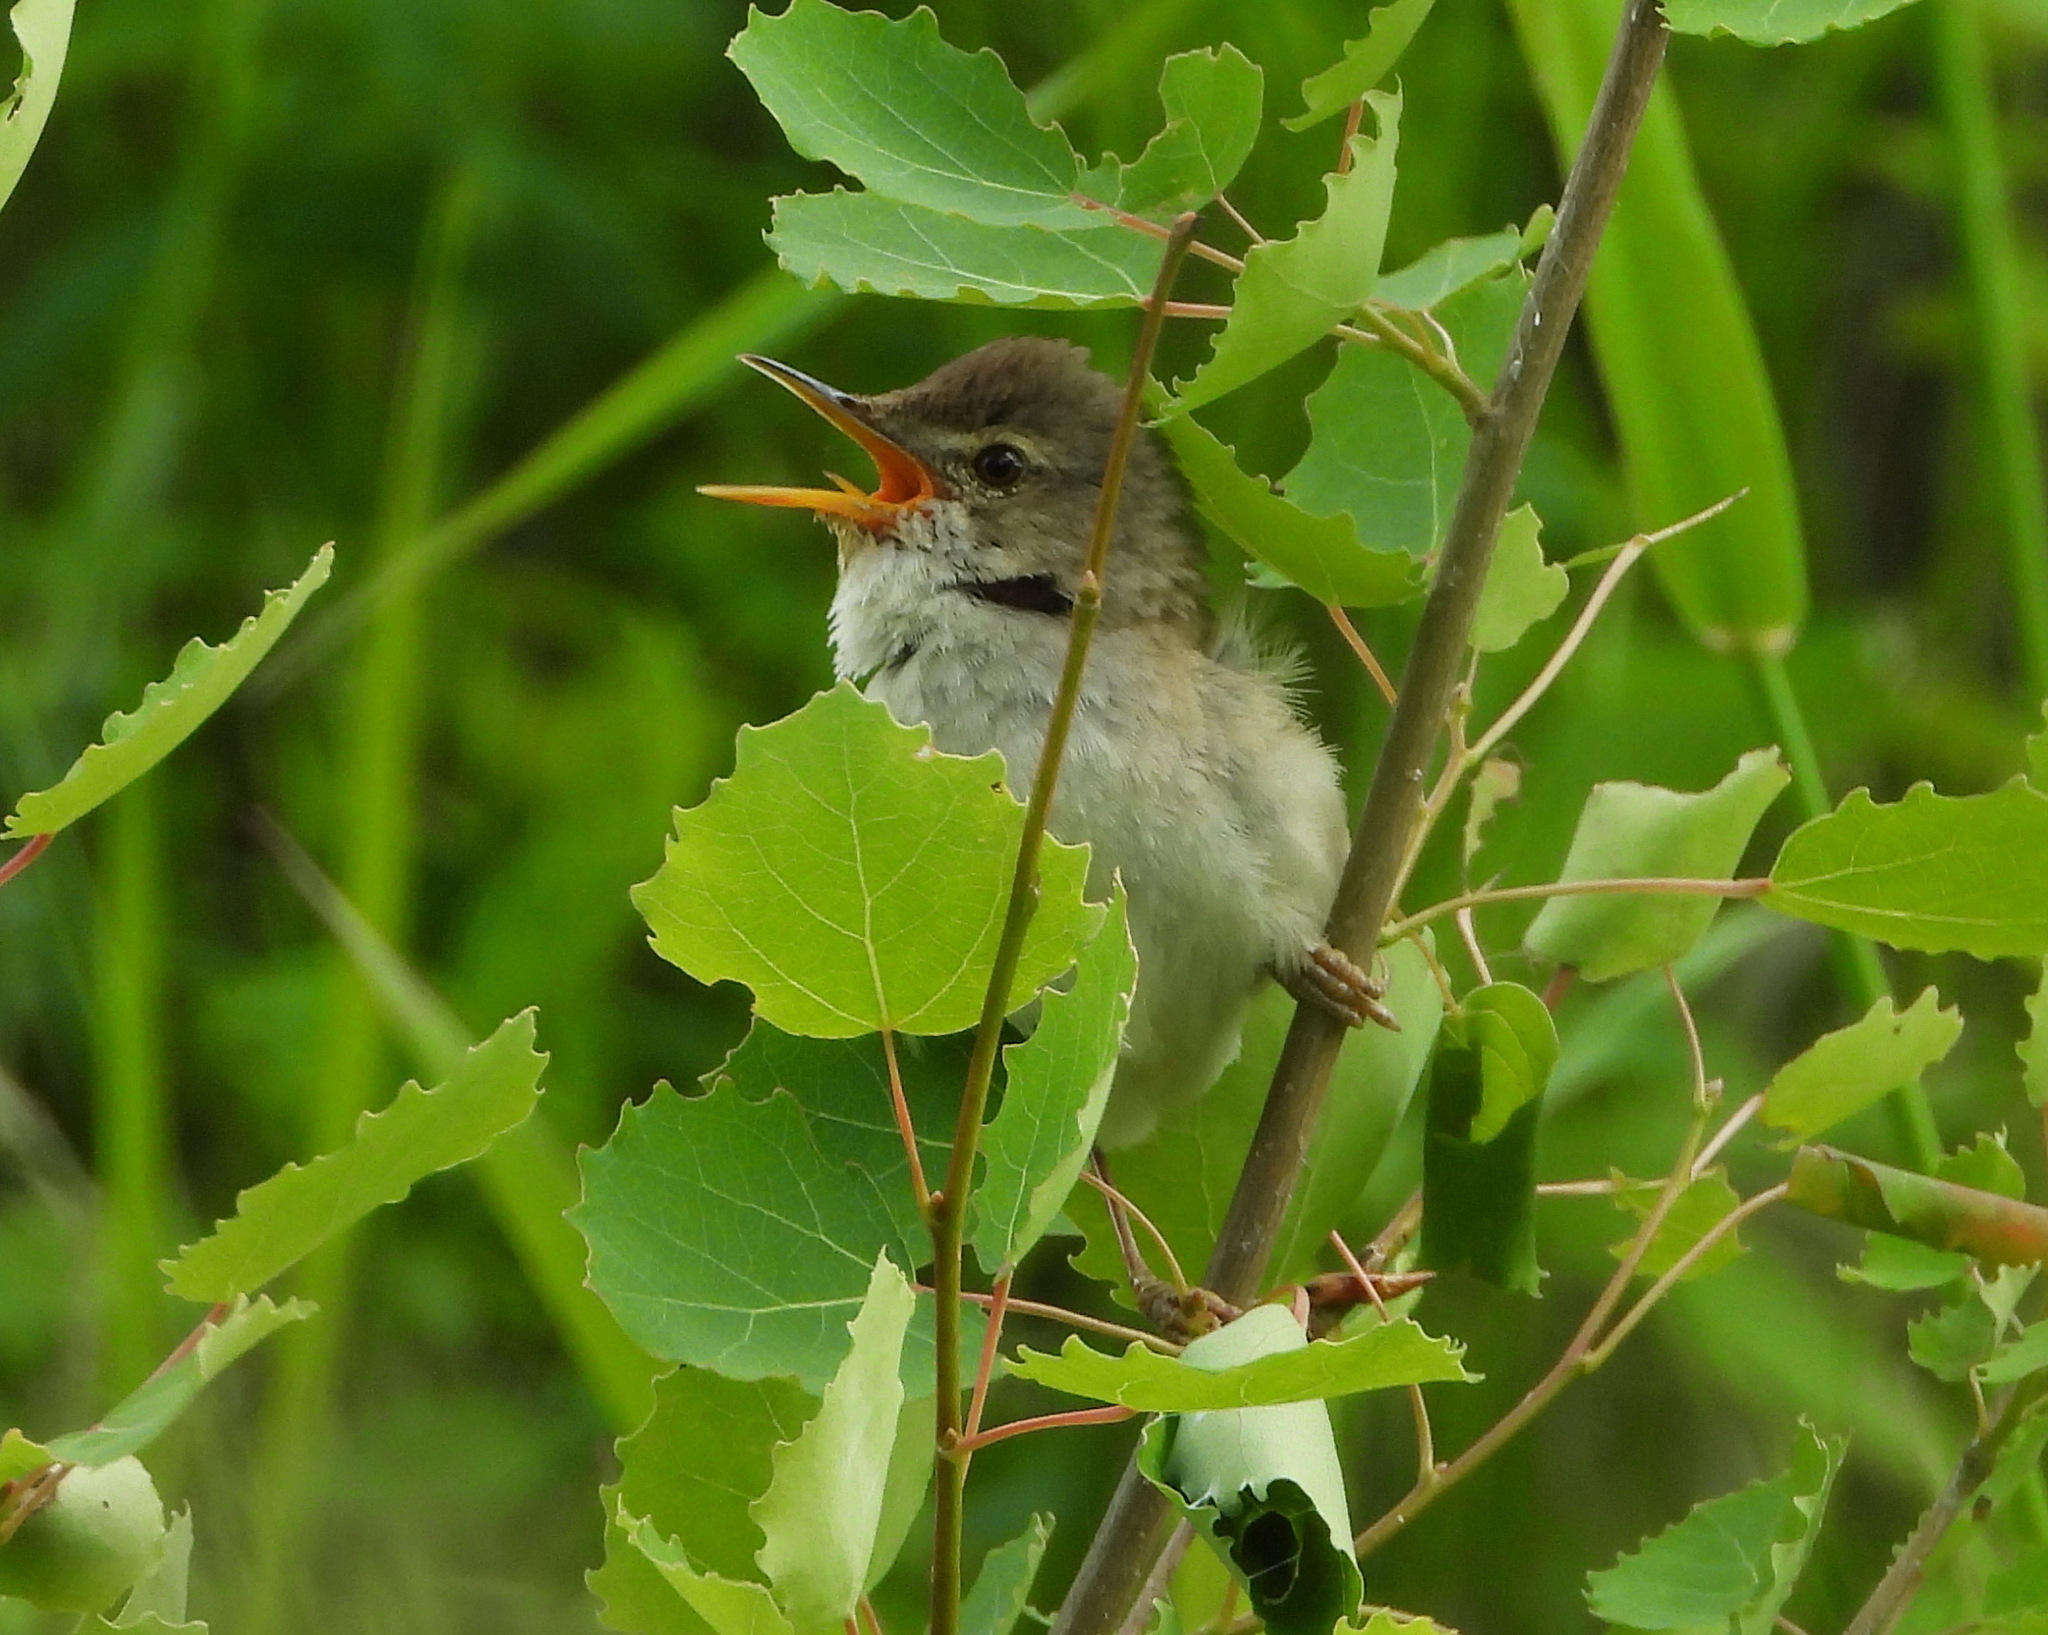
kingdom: Animalia
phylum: Chordata
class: Aves
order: Passeriformes
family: Acrocephalidae
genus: Acrocephalus
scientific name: Acrocephalus dumetorum
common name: Blyth's reed warbler
